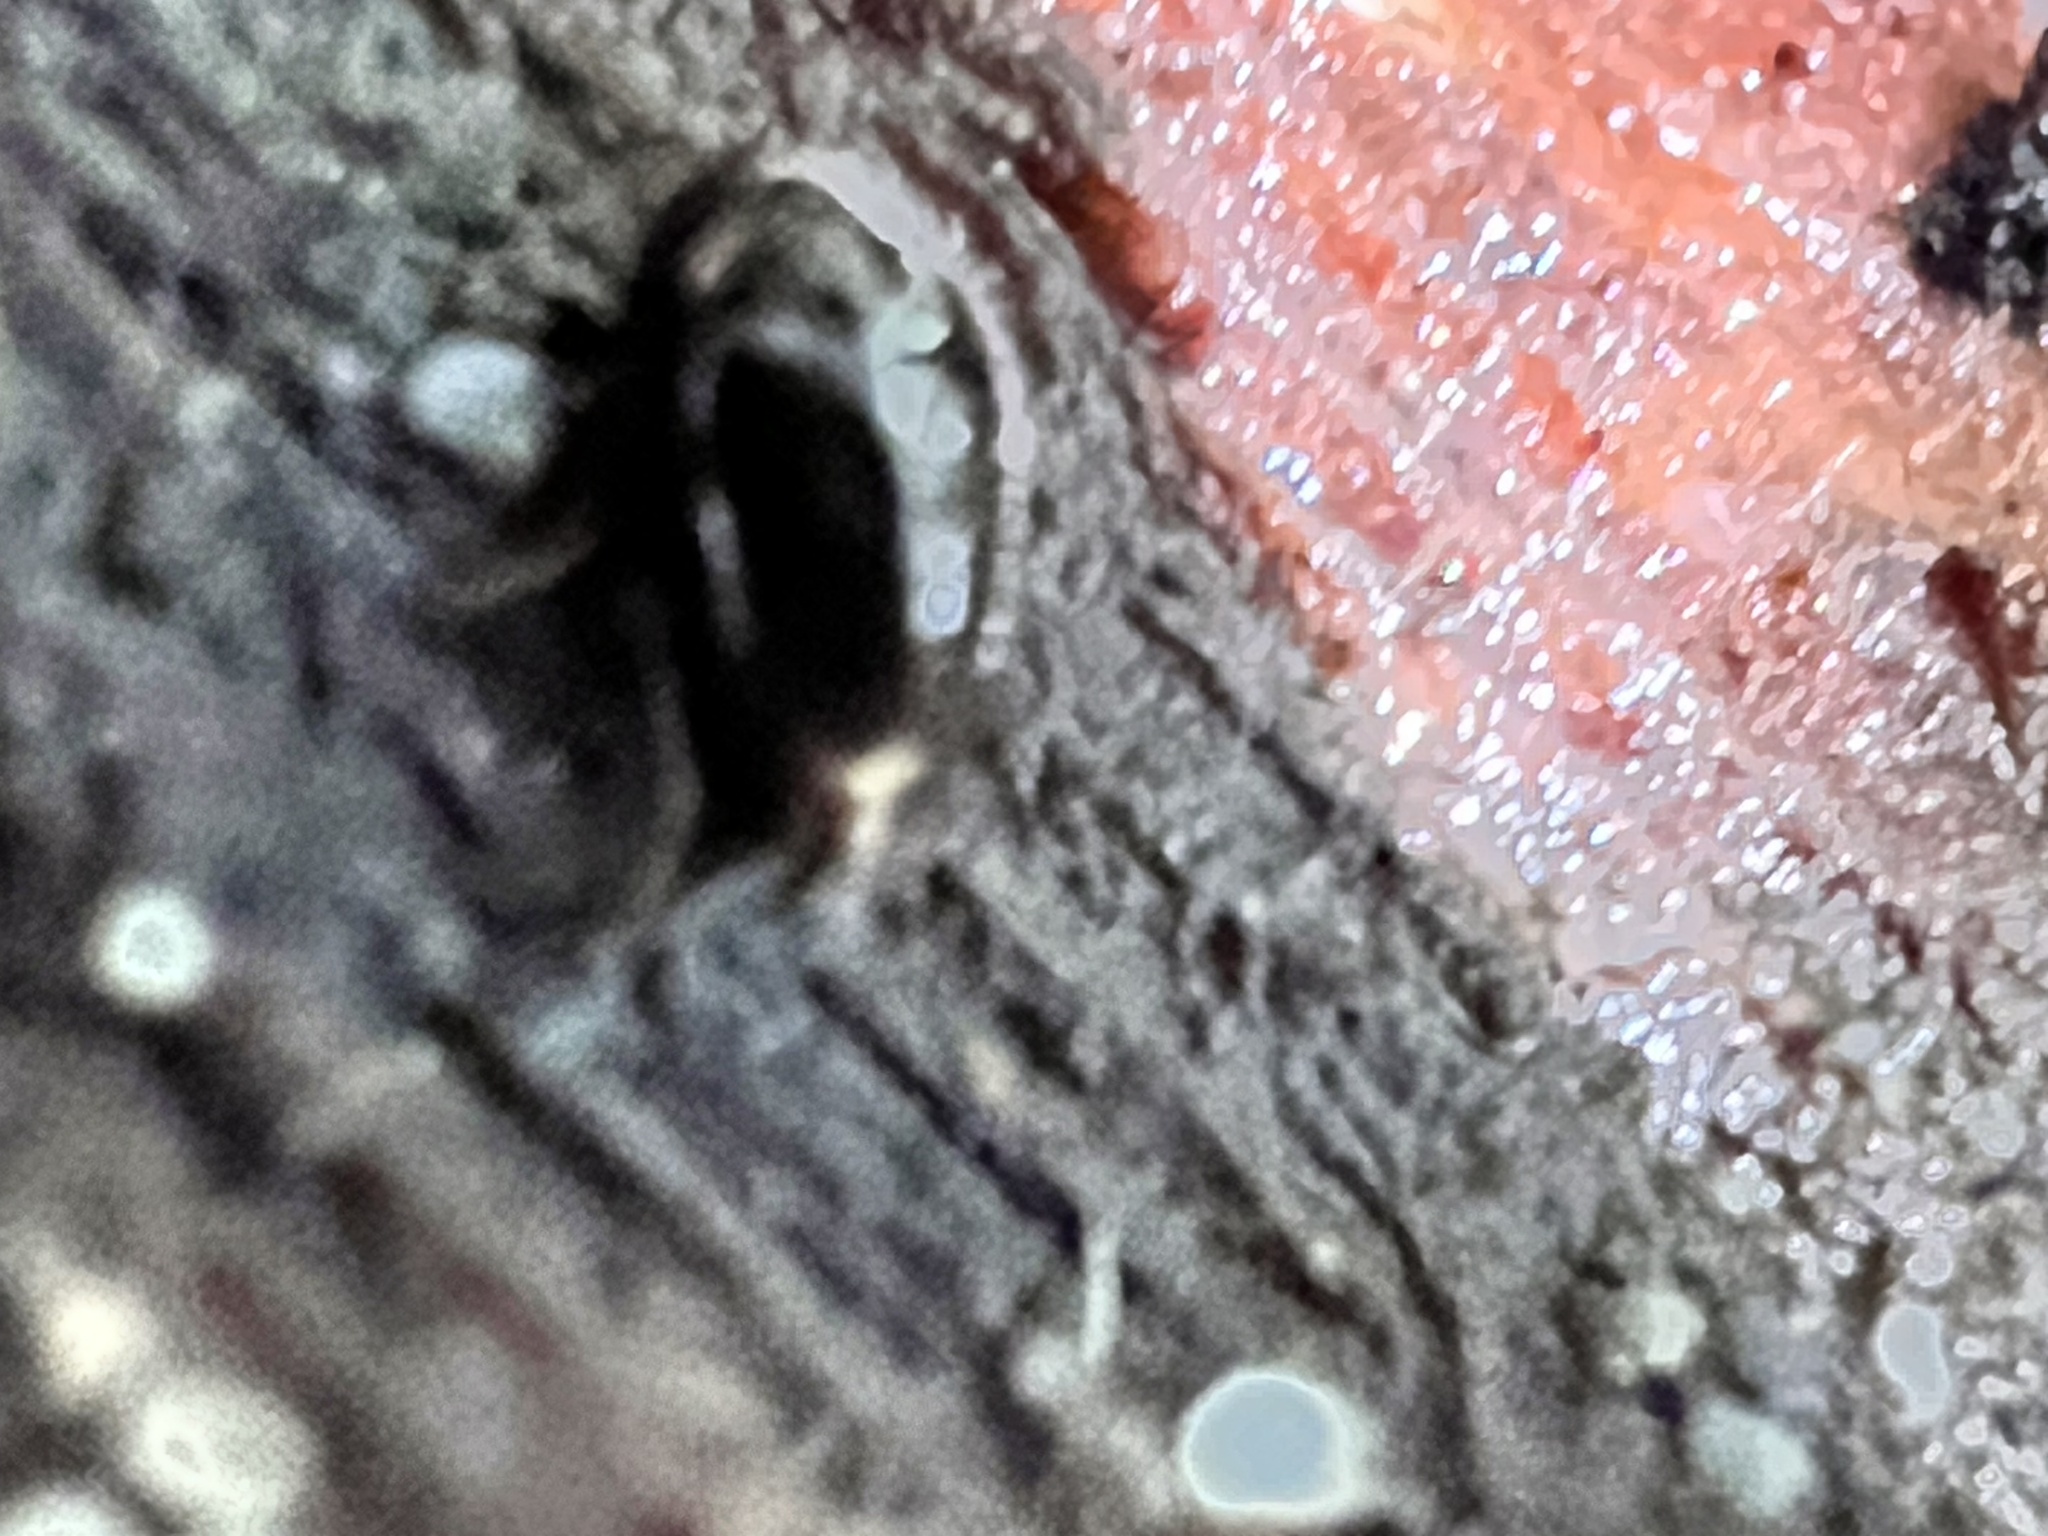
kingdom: Animalia
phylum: Arthropoda
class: Insecta
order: Coleoptera
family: Staphylinidae
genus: Brachynopus
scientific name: Brachynopus scutellaris
